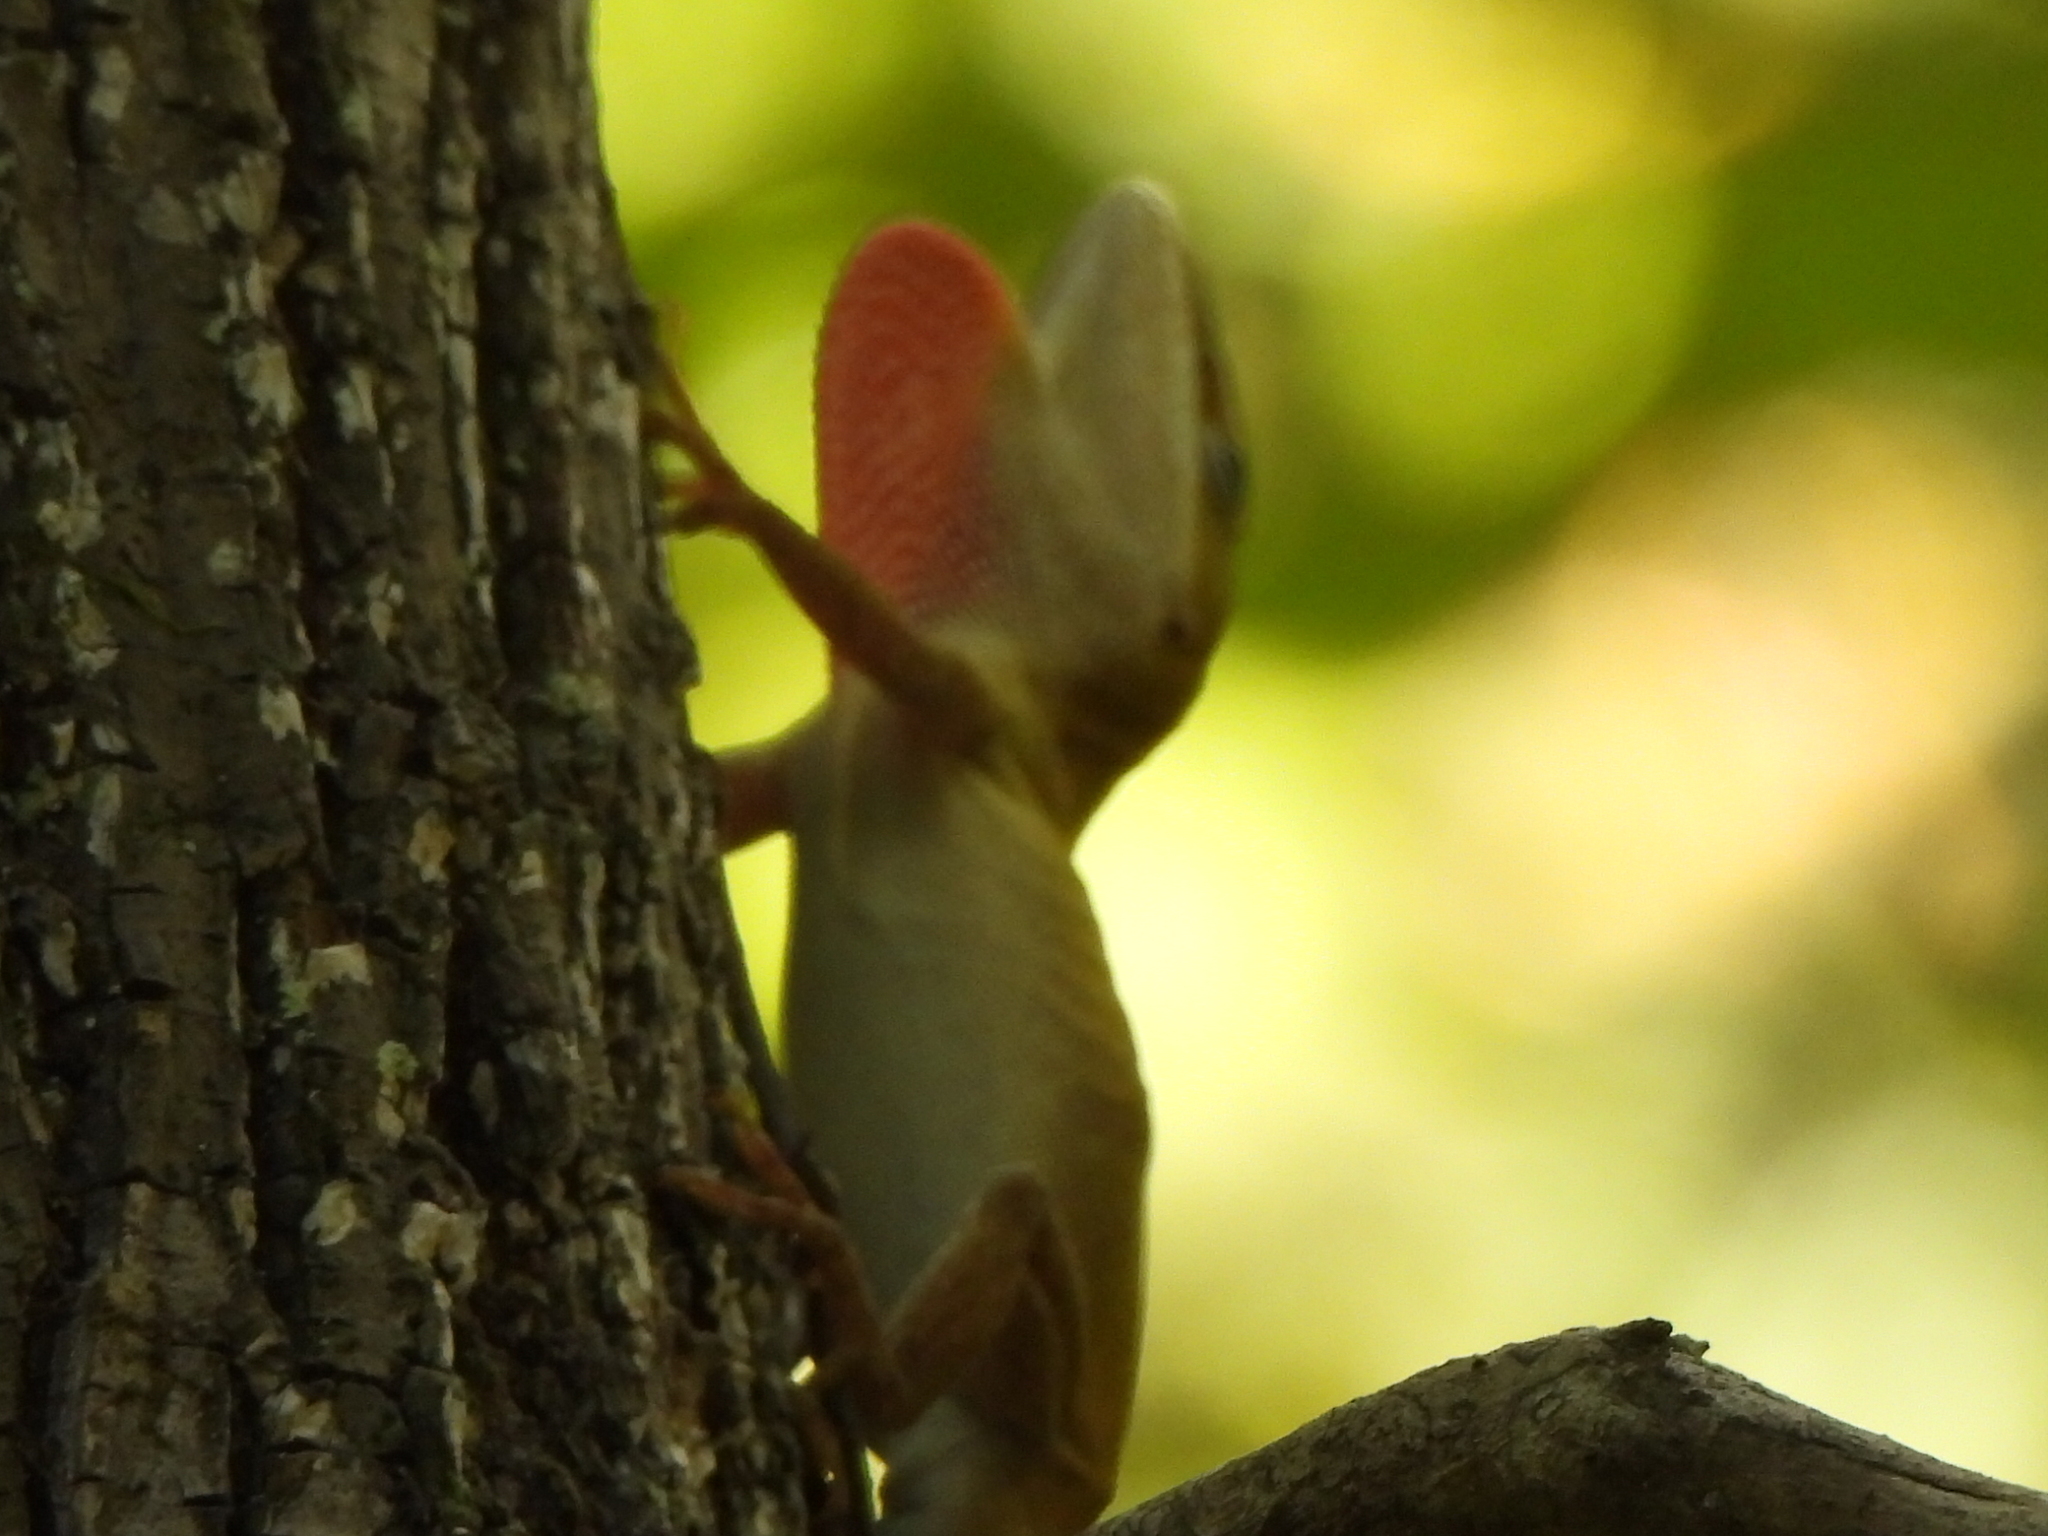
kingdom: Animalia
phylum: Chordata
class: Squamata
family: Dactyloidae
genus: Anolis
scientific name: Anolis carolinensis
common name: Green anole
